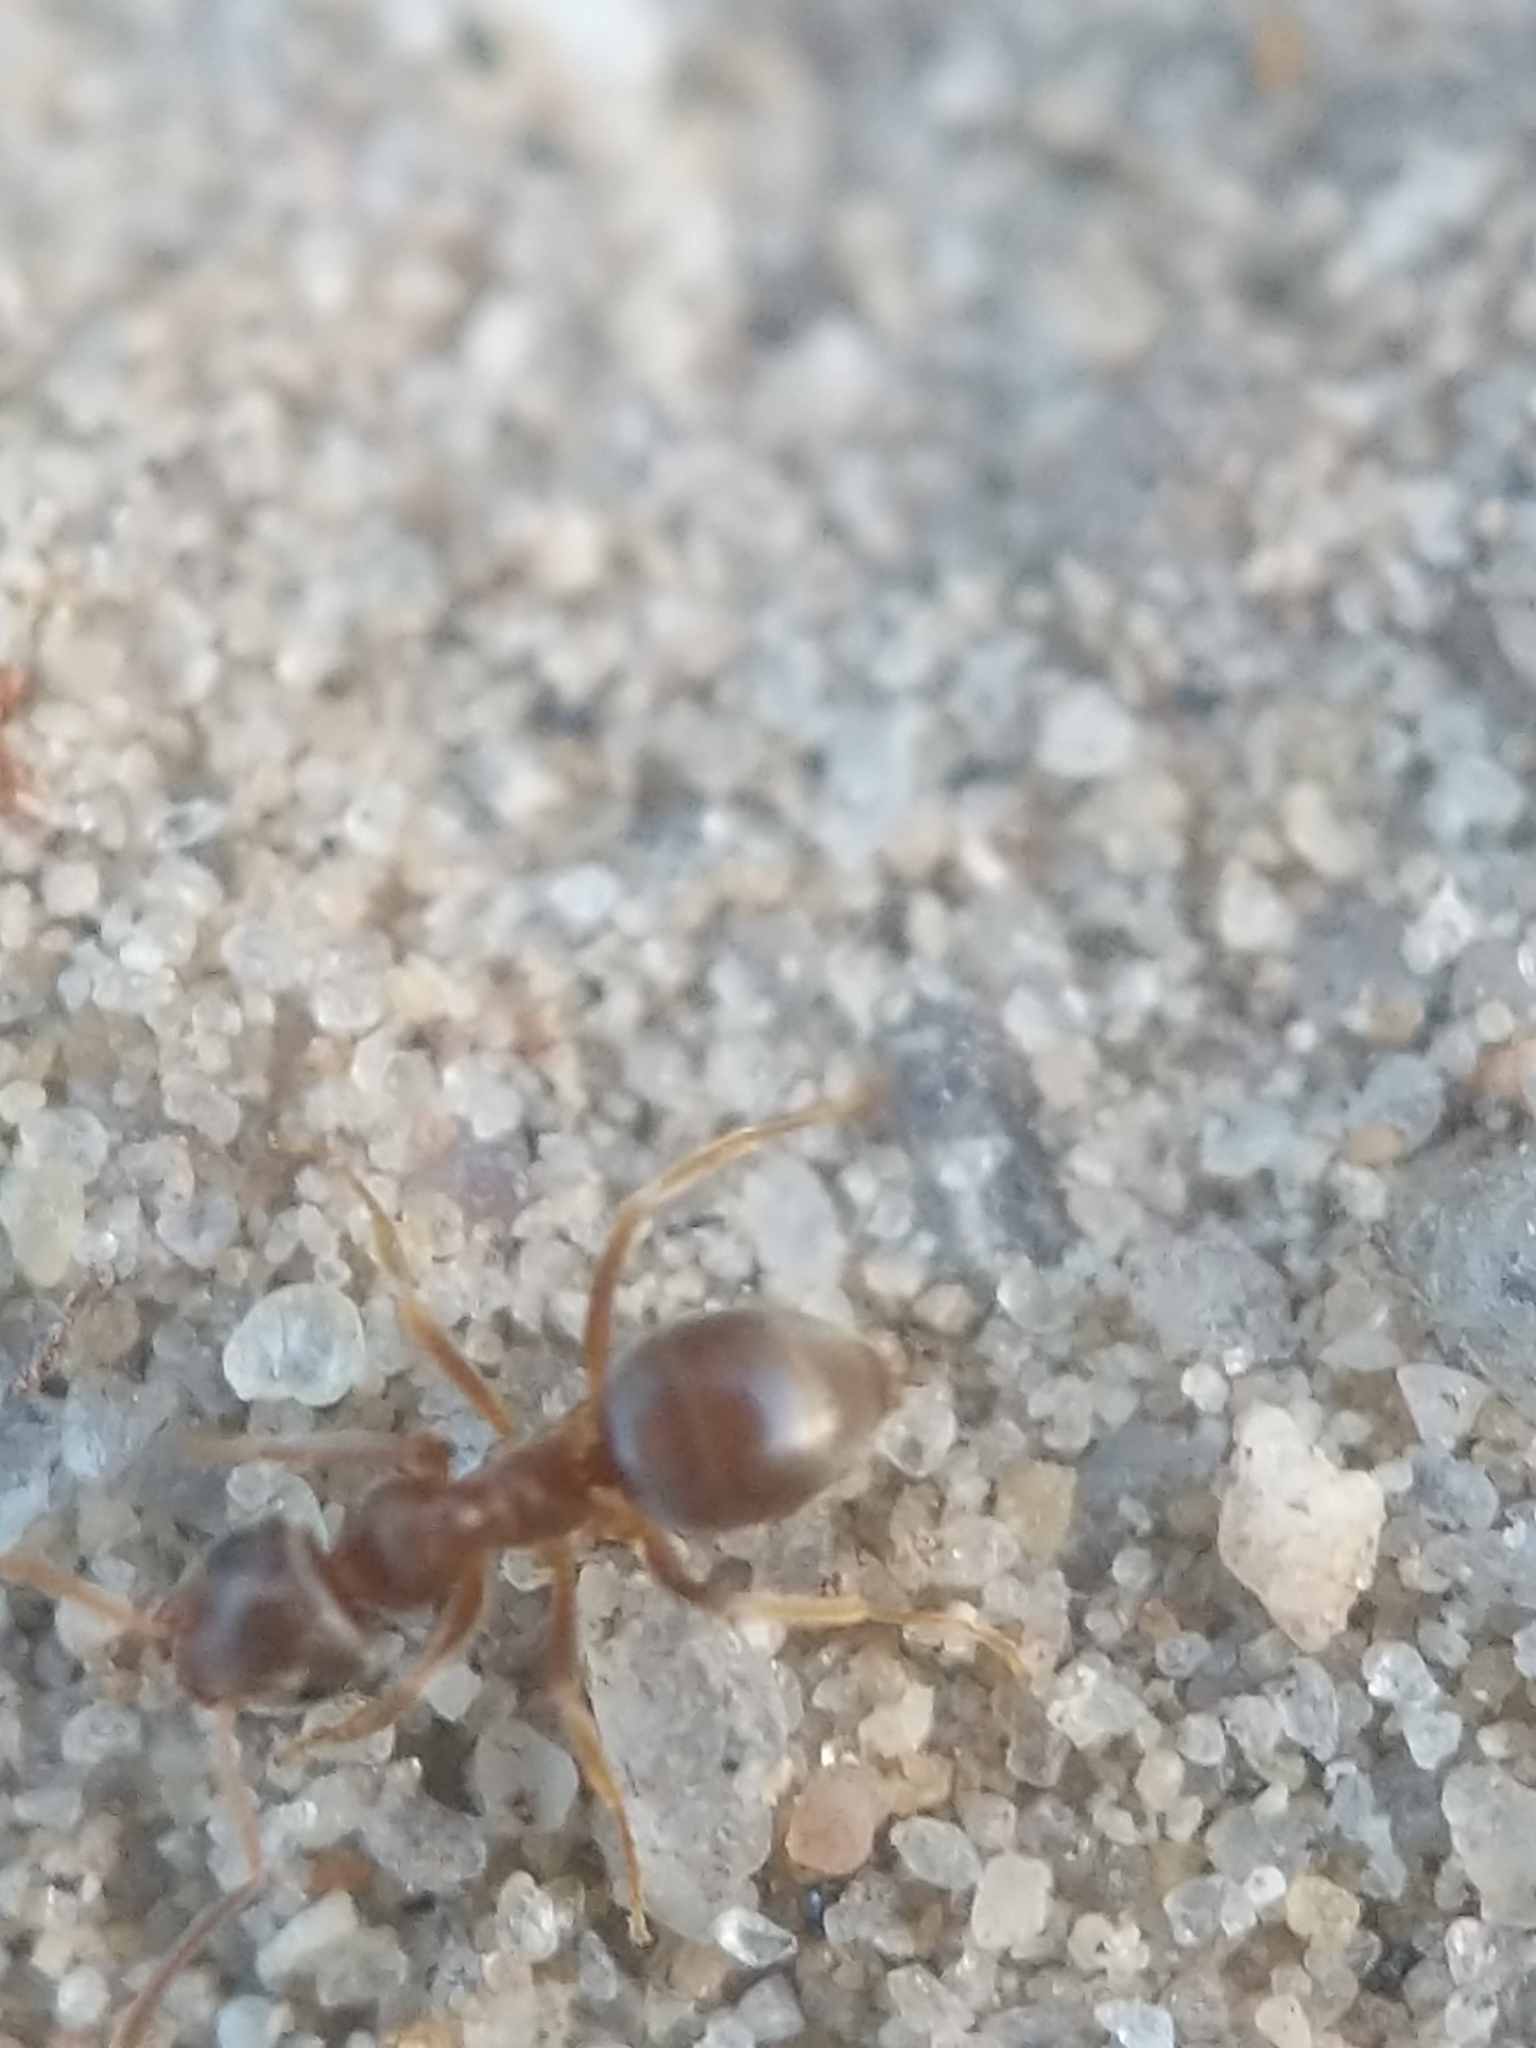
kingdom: Animalia
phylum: Arthropoda
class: Insecta
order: Hymenoptera
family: Formicidae
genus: Lasius
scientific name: Lasius neoniger
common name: Turfgrass ant
